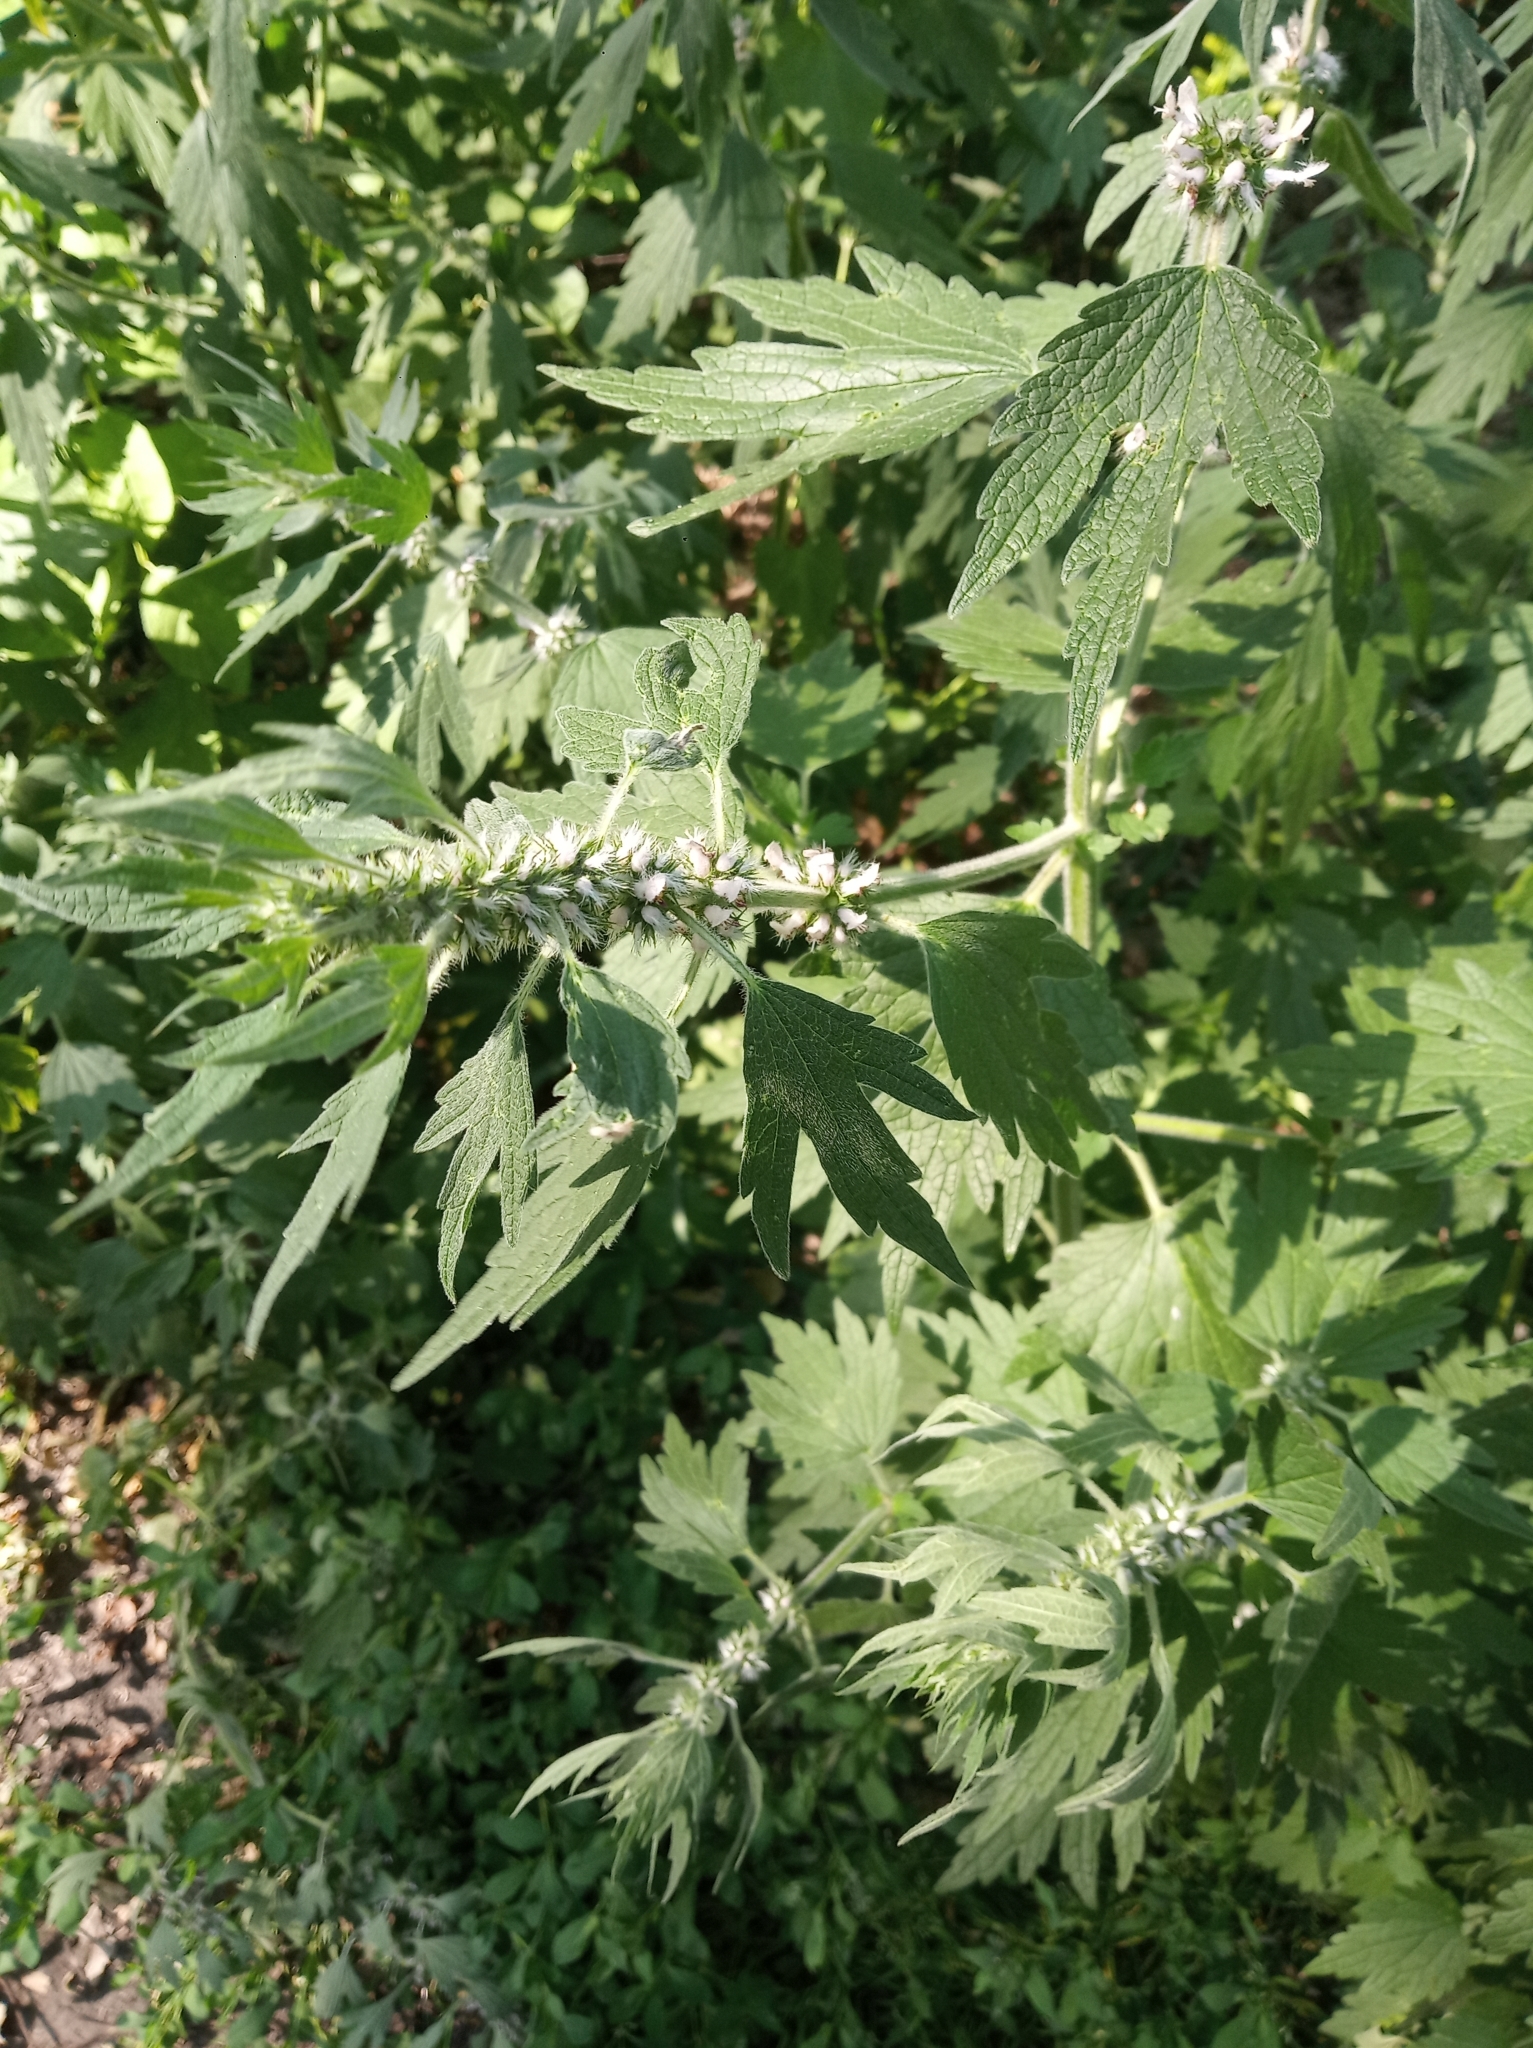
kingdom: Plantae
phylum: Tracheophyta
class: Magnoliopsida
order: Lamiales
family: Lamiaceae
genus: Leonurus
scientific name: Leonurus quinquelobatus
